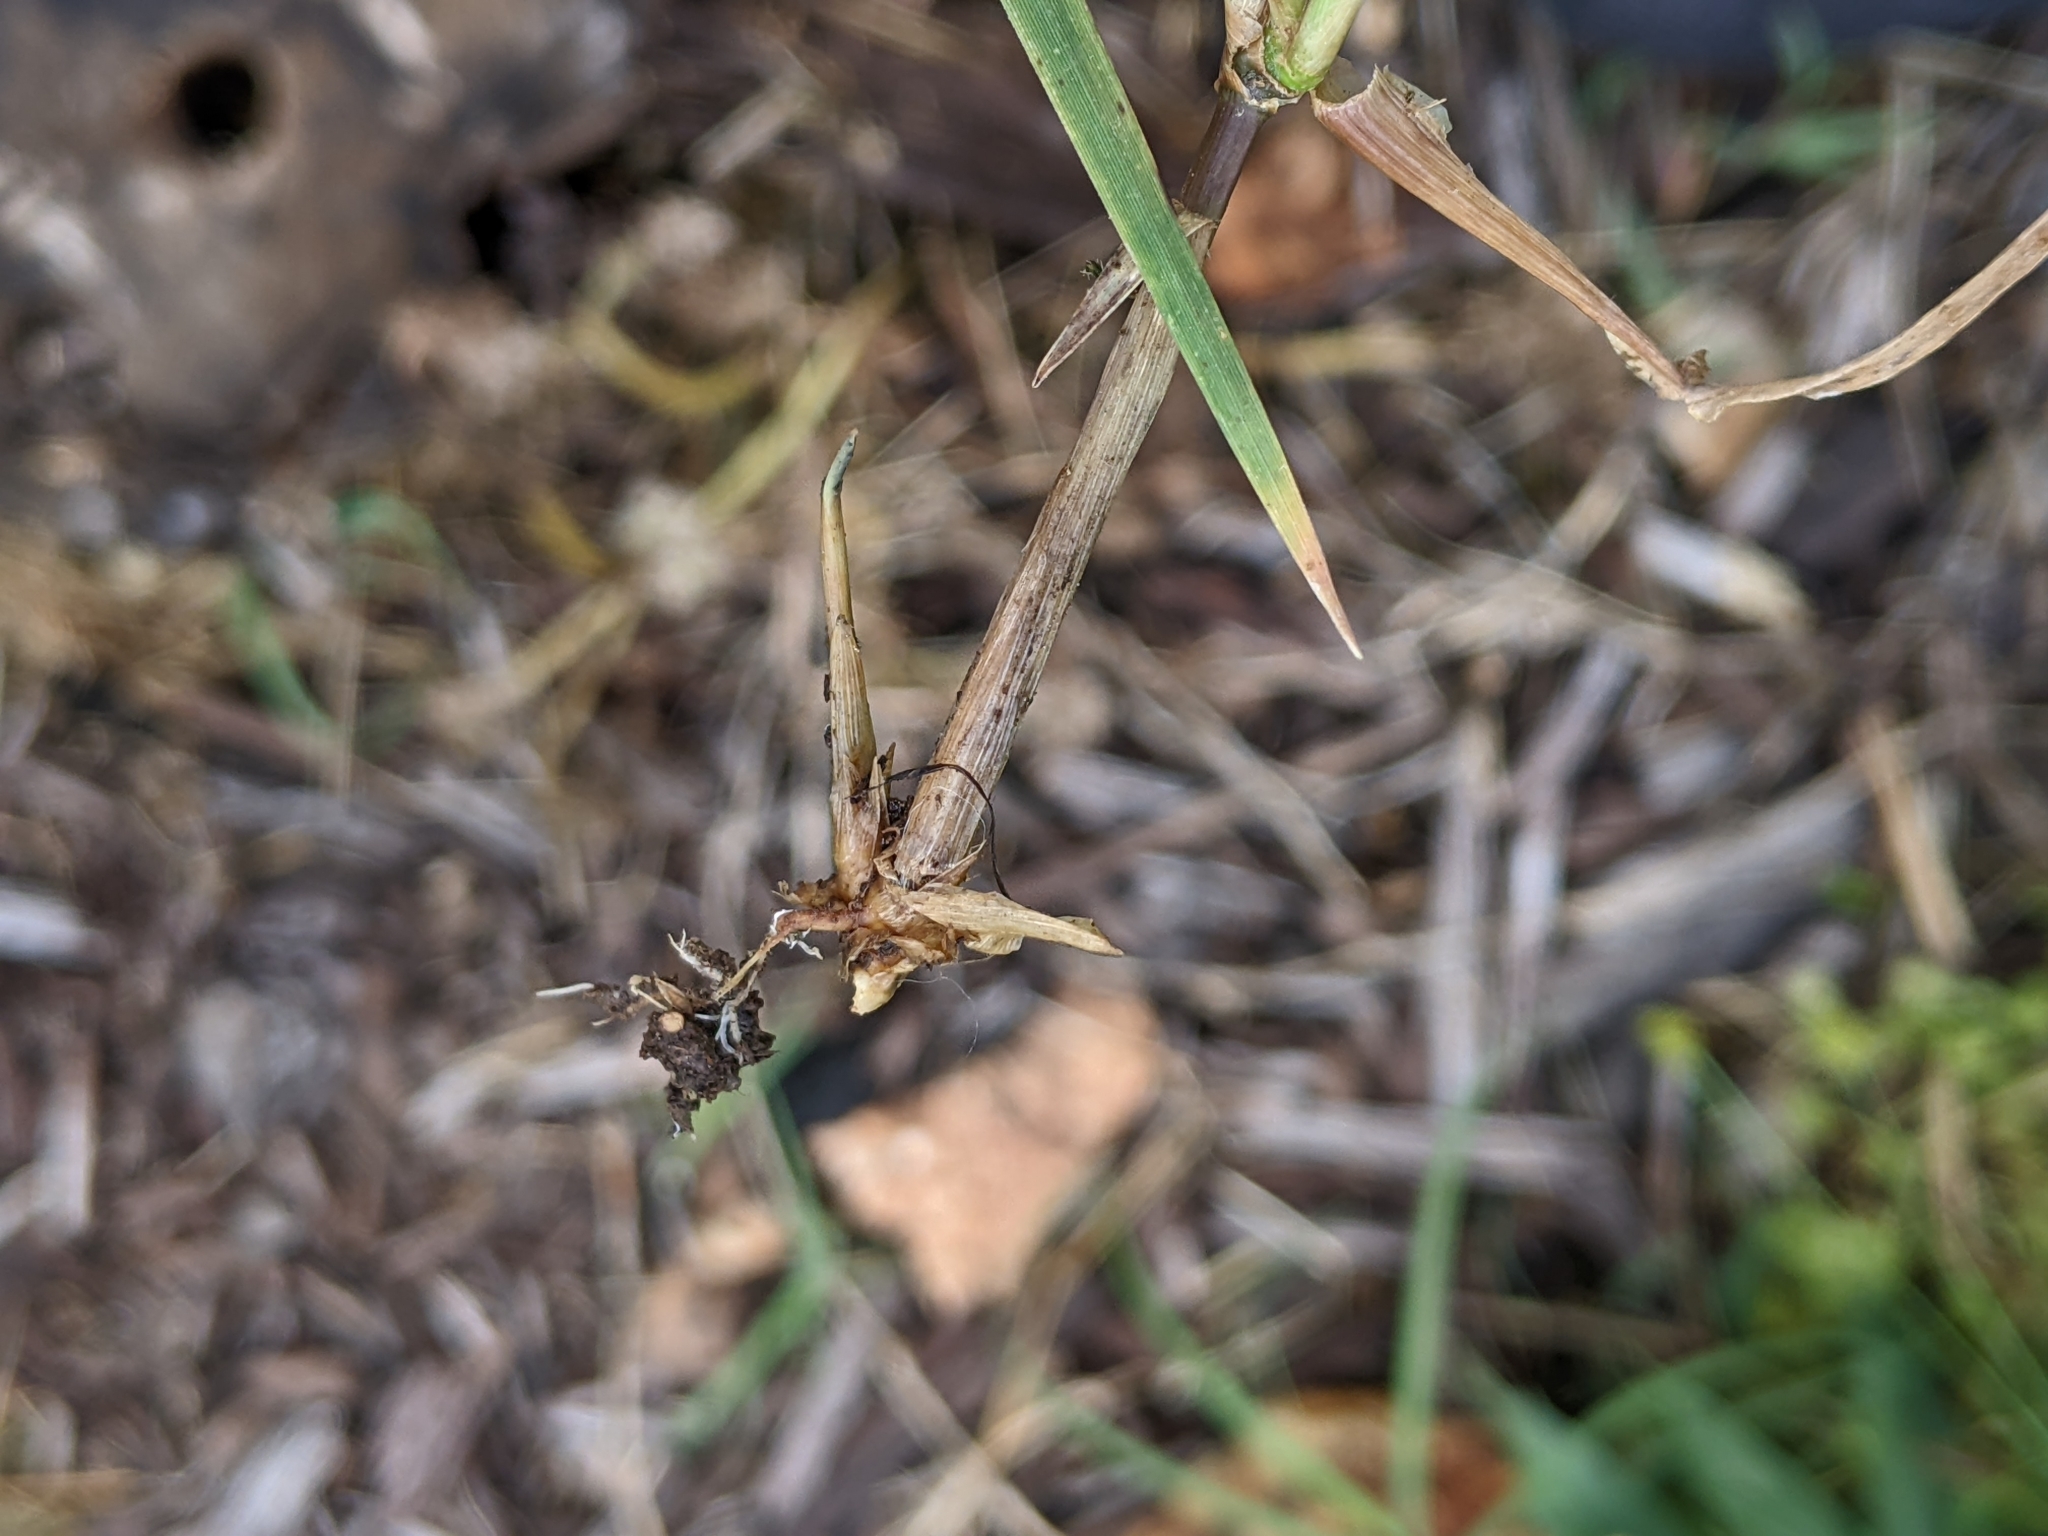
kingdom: Plantae
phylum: Tracheophyta
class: Liliopsida
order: Poales
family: Poaceae
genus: Cynodon
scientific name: Cynodon dactylon
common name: Bermuda grass
